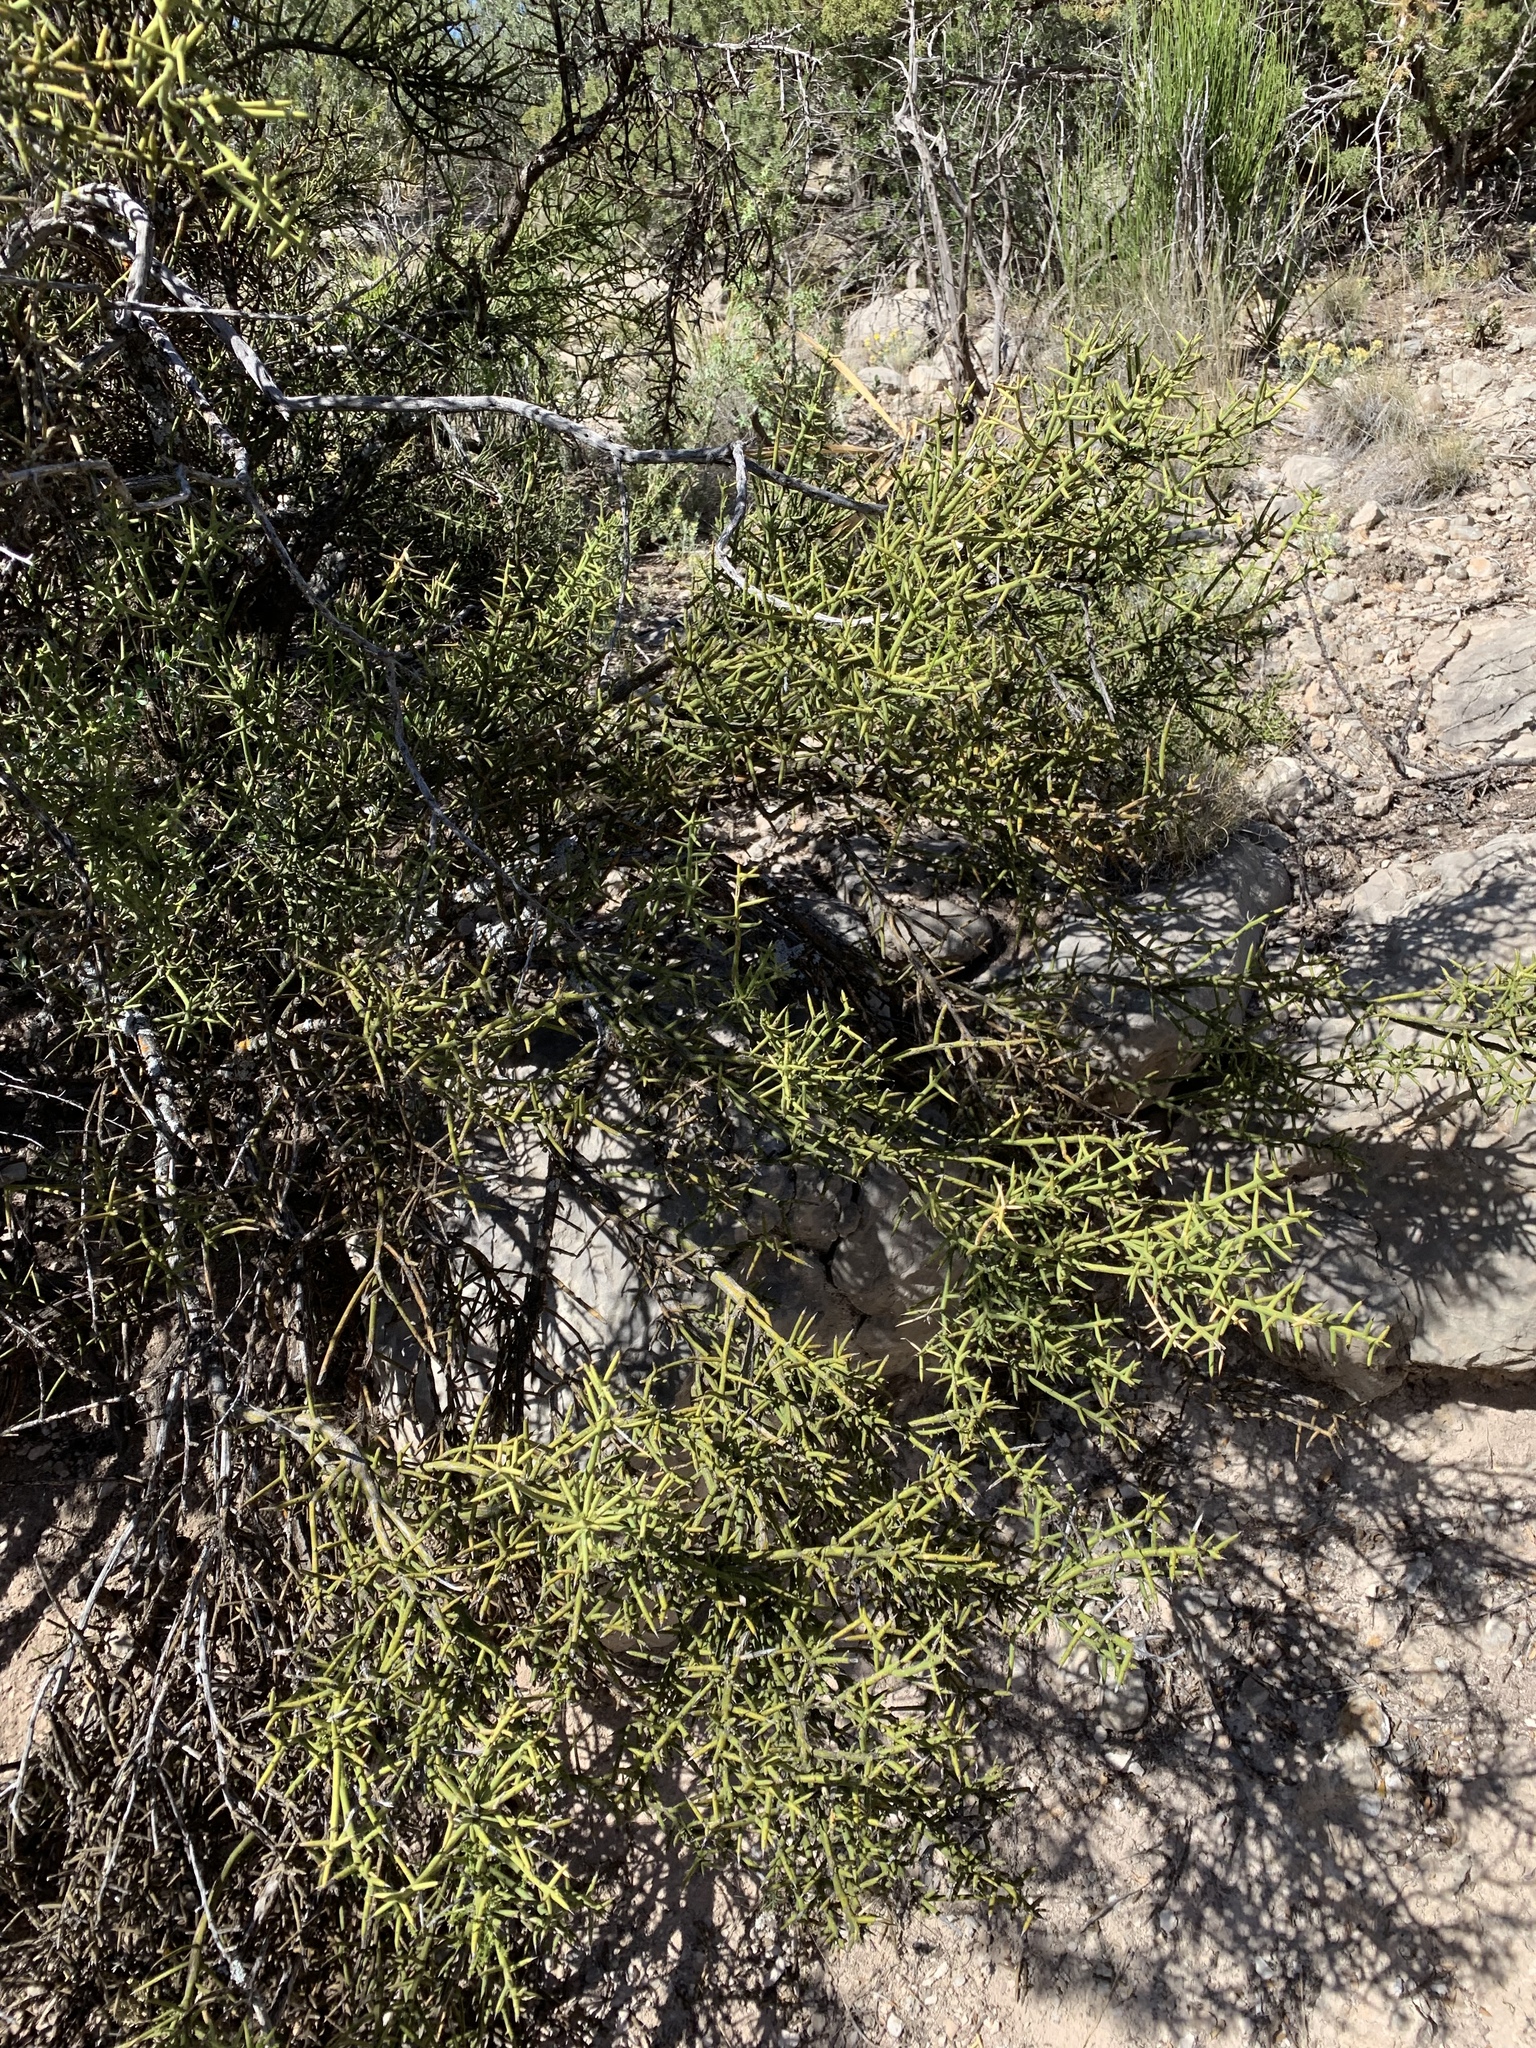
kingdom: Plantae
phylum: Tracheophyta
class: Magnoliopsida
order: Brassicales
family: Koeberliniaceae
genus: Koeberlinia
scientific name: Koeberlinia spinosa
